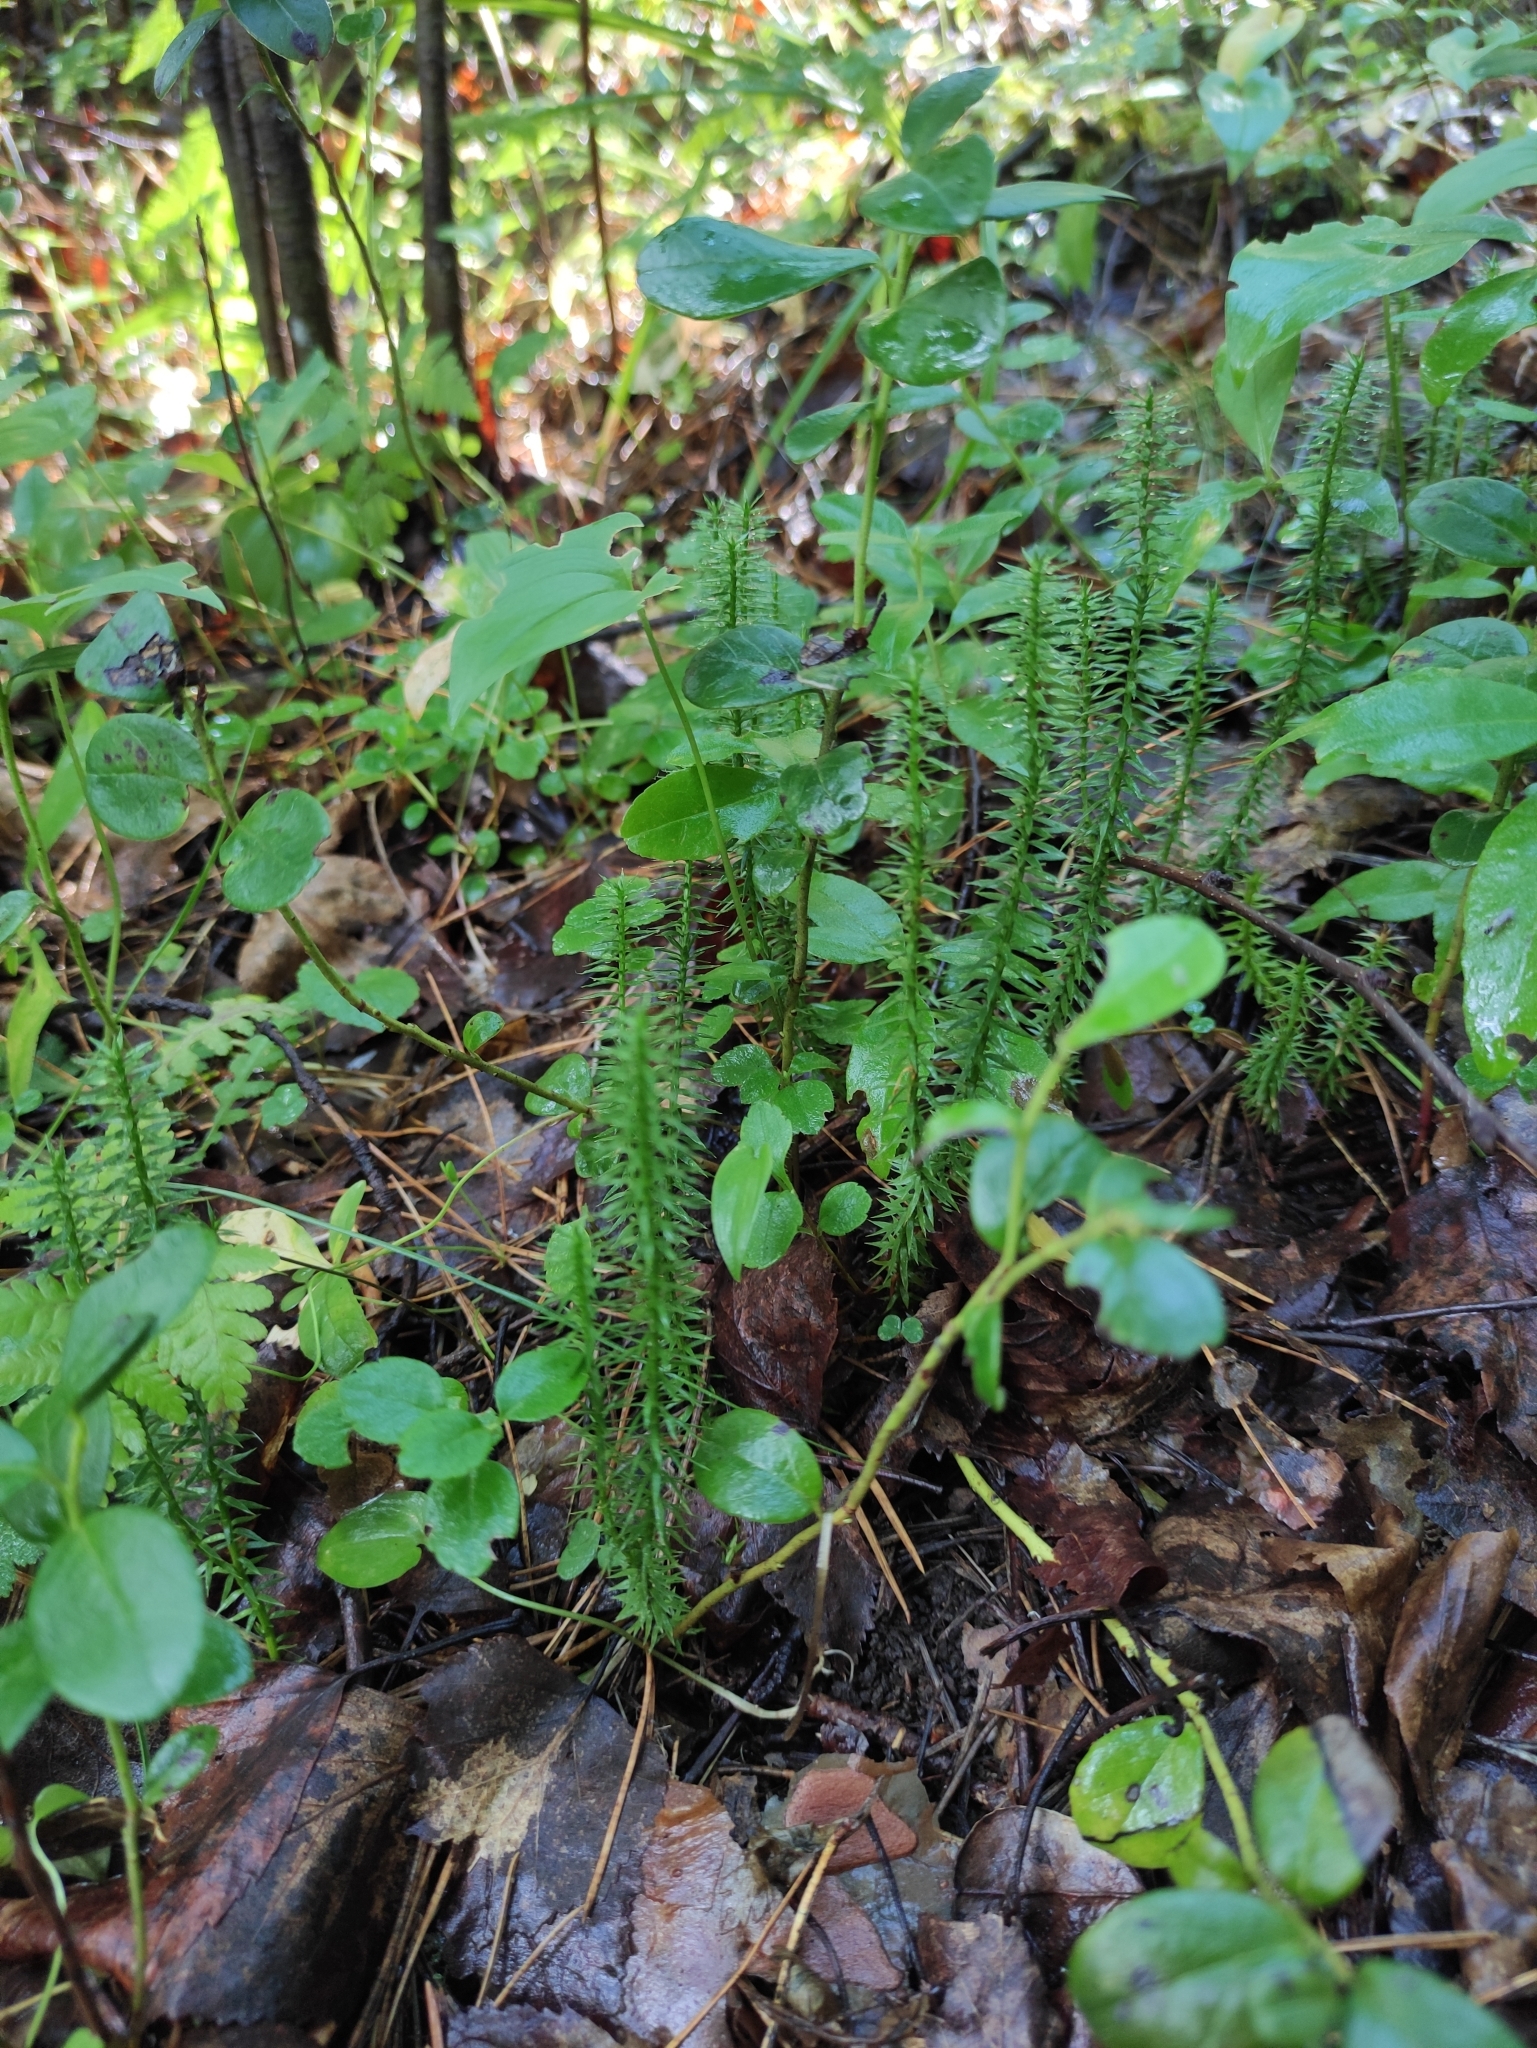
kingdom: Plantae
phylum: Tracheophyta
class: Lycopodiopsida
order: Lycopodiales
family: Lycopodiaceae
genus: Spinulum
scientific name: Spinulum annotinum
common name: Interrupted club-moss
